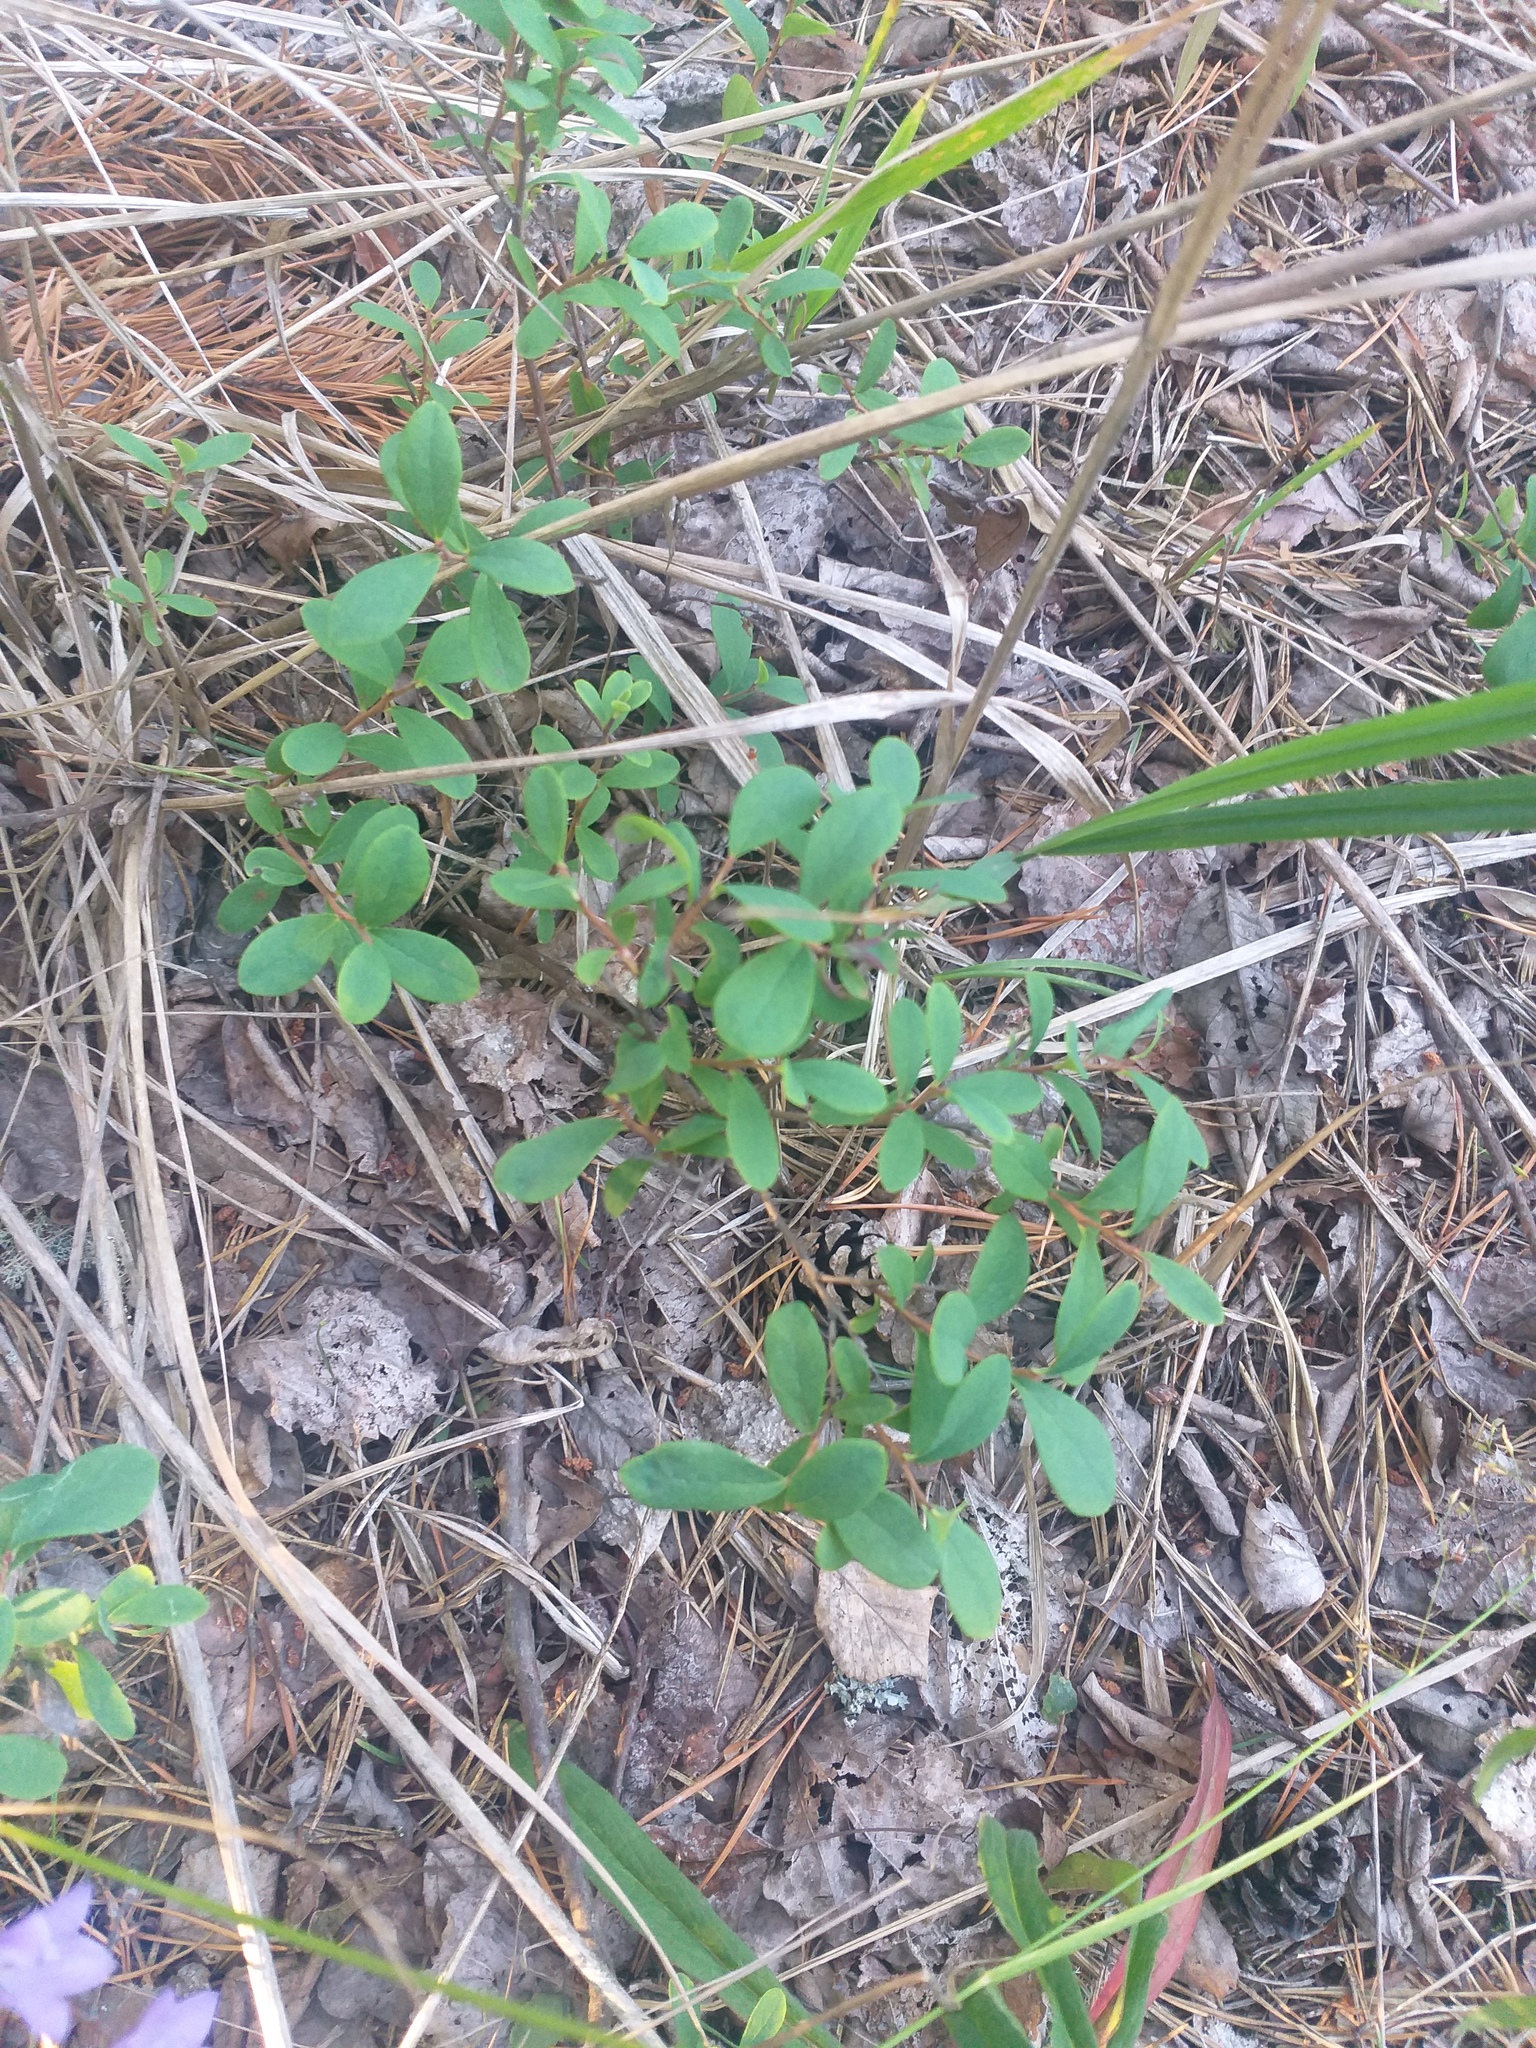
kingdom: Plantae
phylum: Tracheophyta
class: Magnoliopsida
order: Ericales
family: Ericaceae
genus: Vaccinium
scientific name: Vaccinium uliginosum
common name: Bog bilberry
